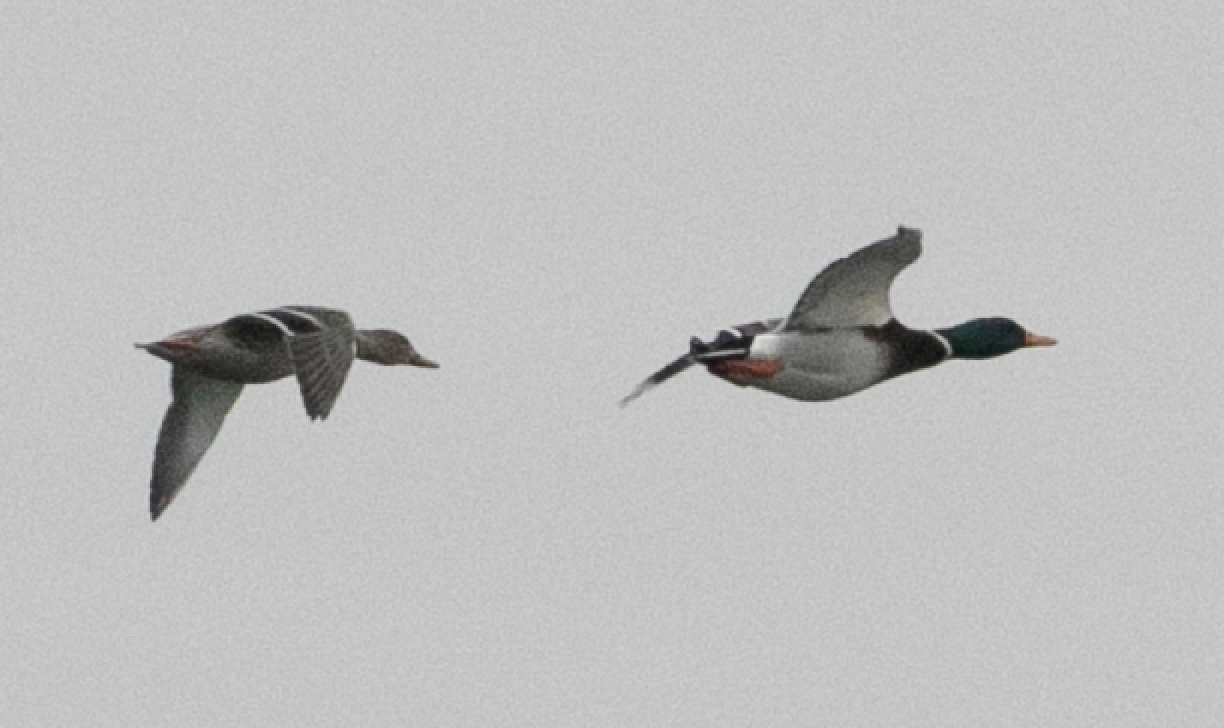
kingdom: Animalia
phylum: Chordata
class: Aves
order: Anseriformes
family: Anatidae
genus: Anas
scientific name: Anas platyrhynchos
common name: Mallard
